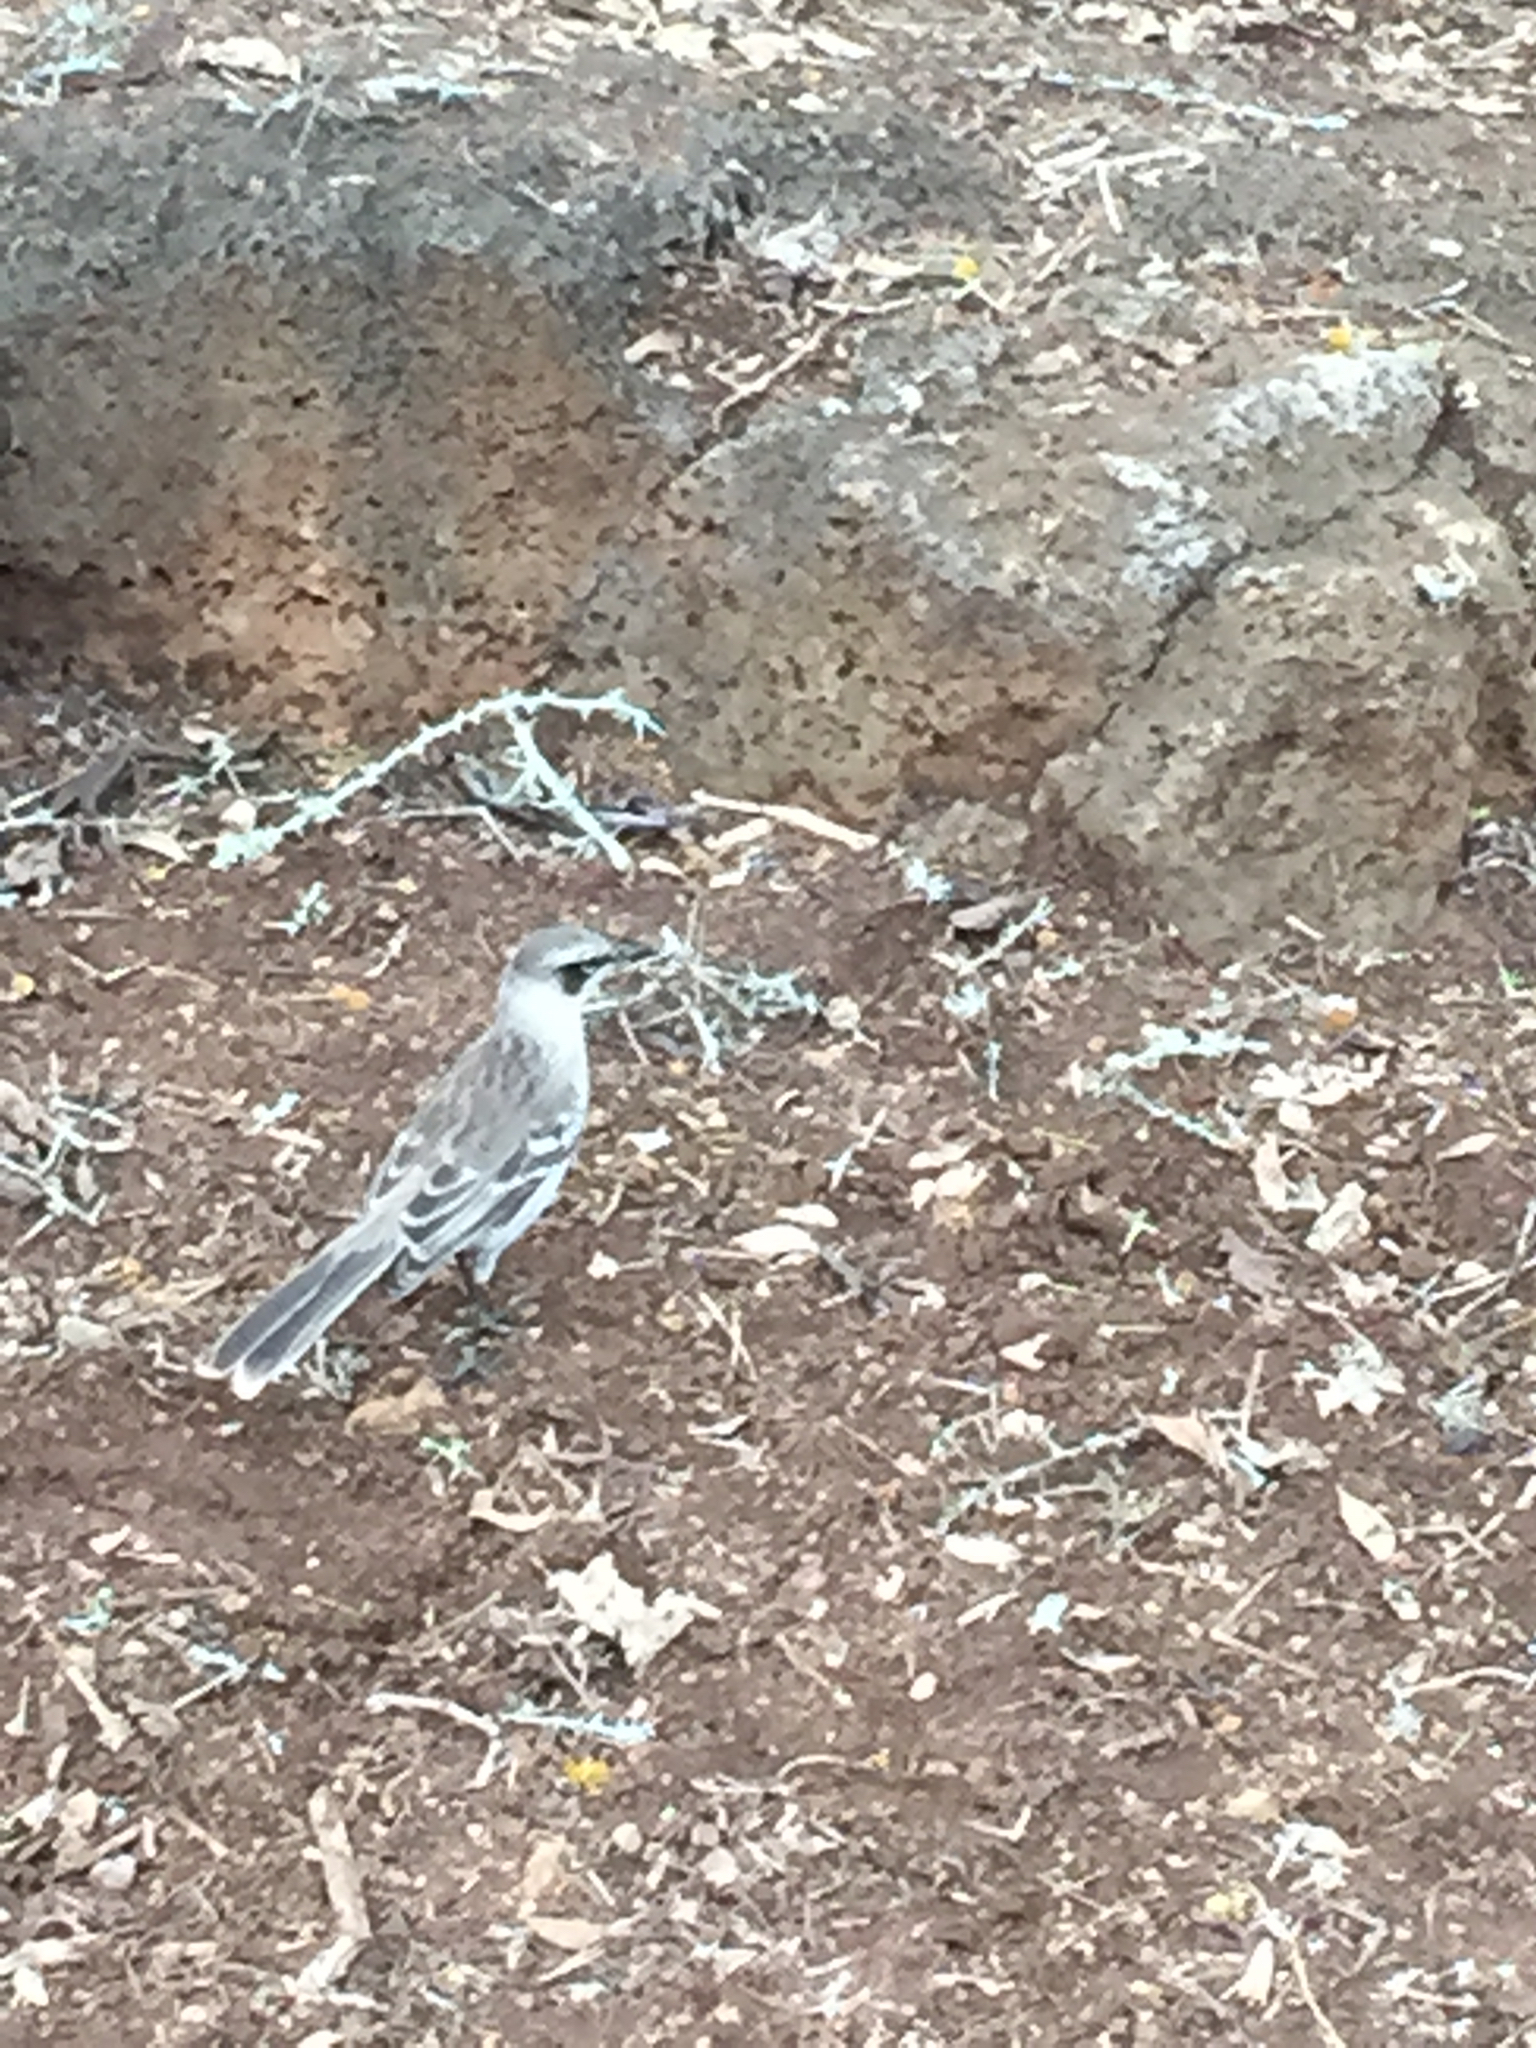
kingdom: Animalia
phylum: Chordata
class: Aves
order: Passeriformes
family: Mimidae
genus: Mimus
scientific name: Mimus parvulus
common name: Galapagos mockingbird
